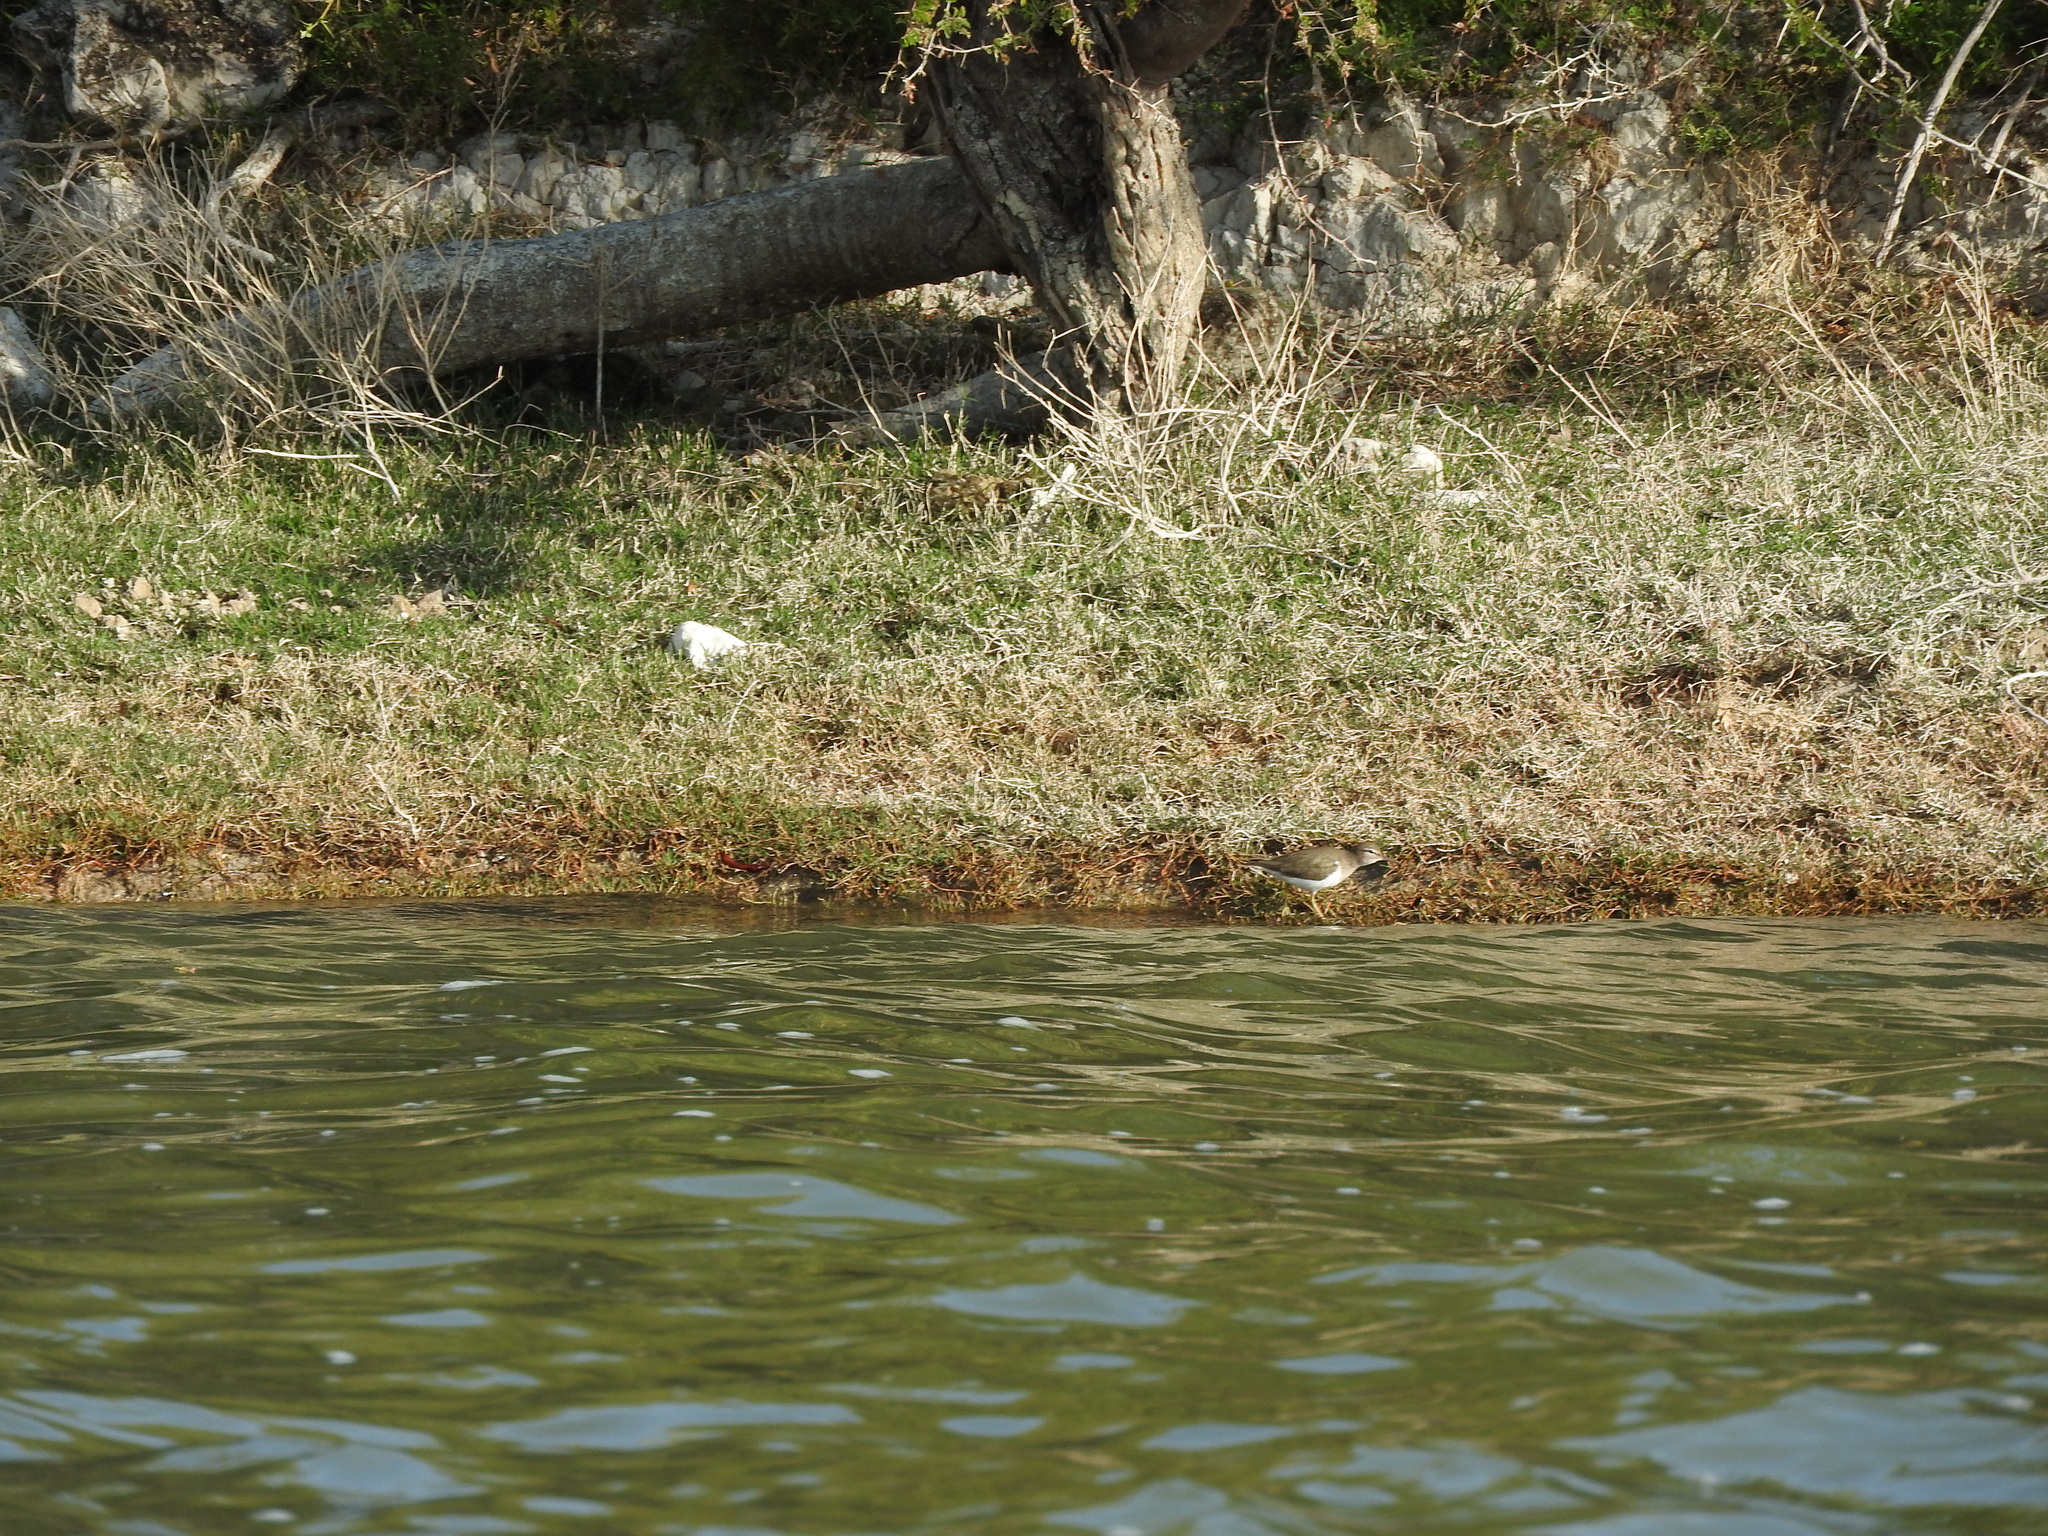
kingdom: Animalia
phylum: Chordata
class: Aves
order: Charadriiformes
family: Scolopacidae
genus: Actitis
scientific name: Actitis macularius
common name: Spotted sandpiper
